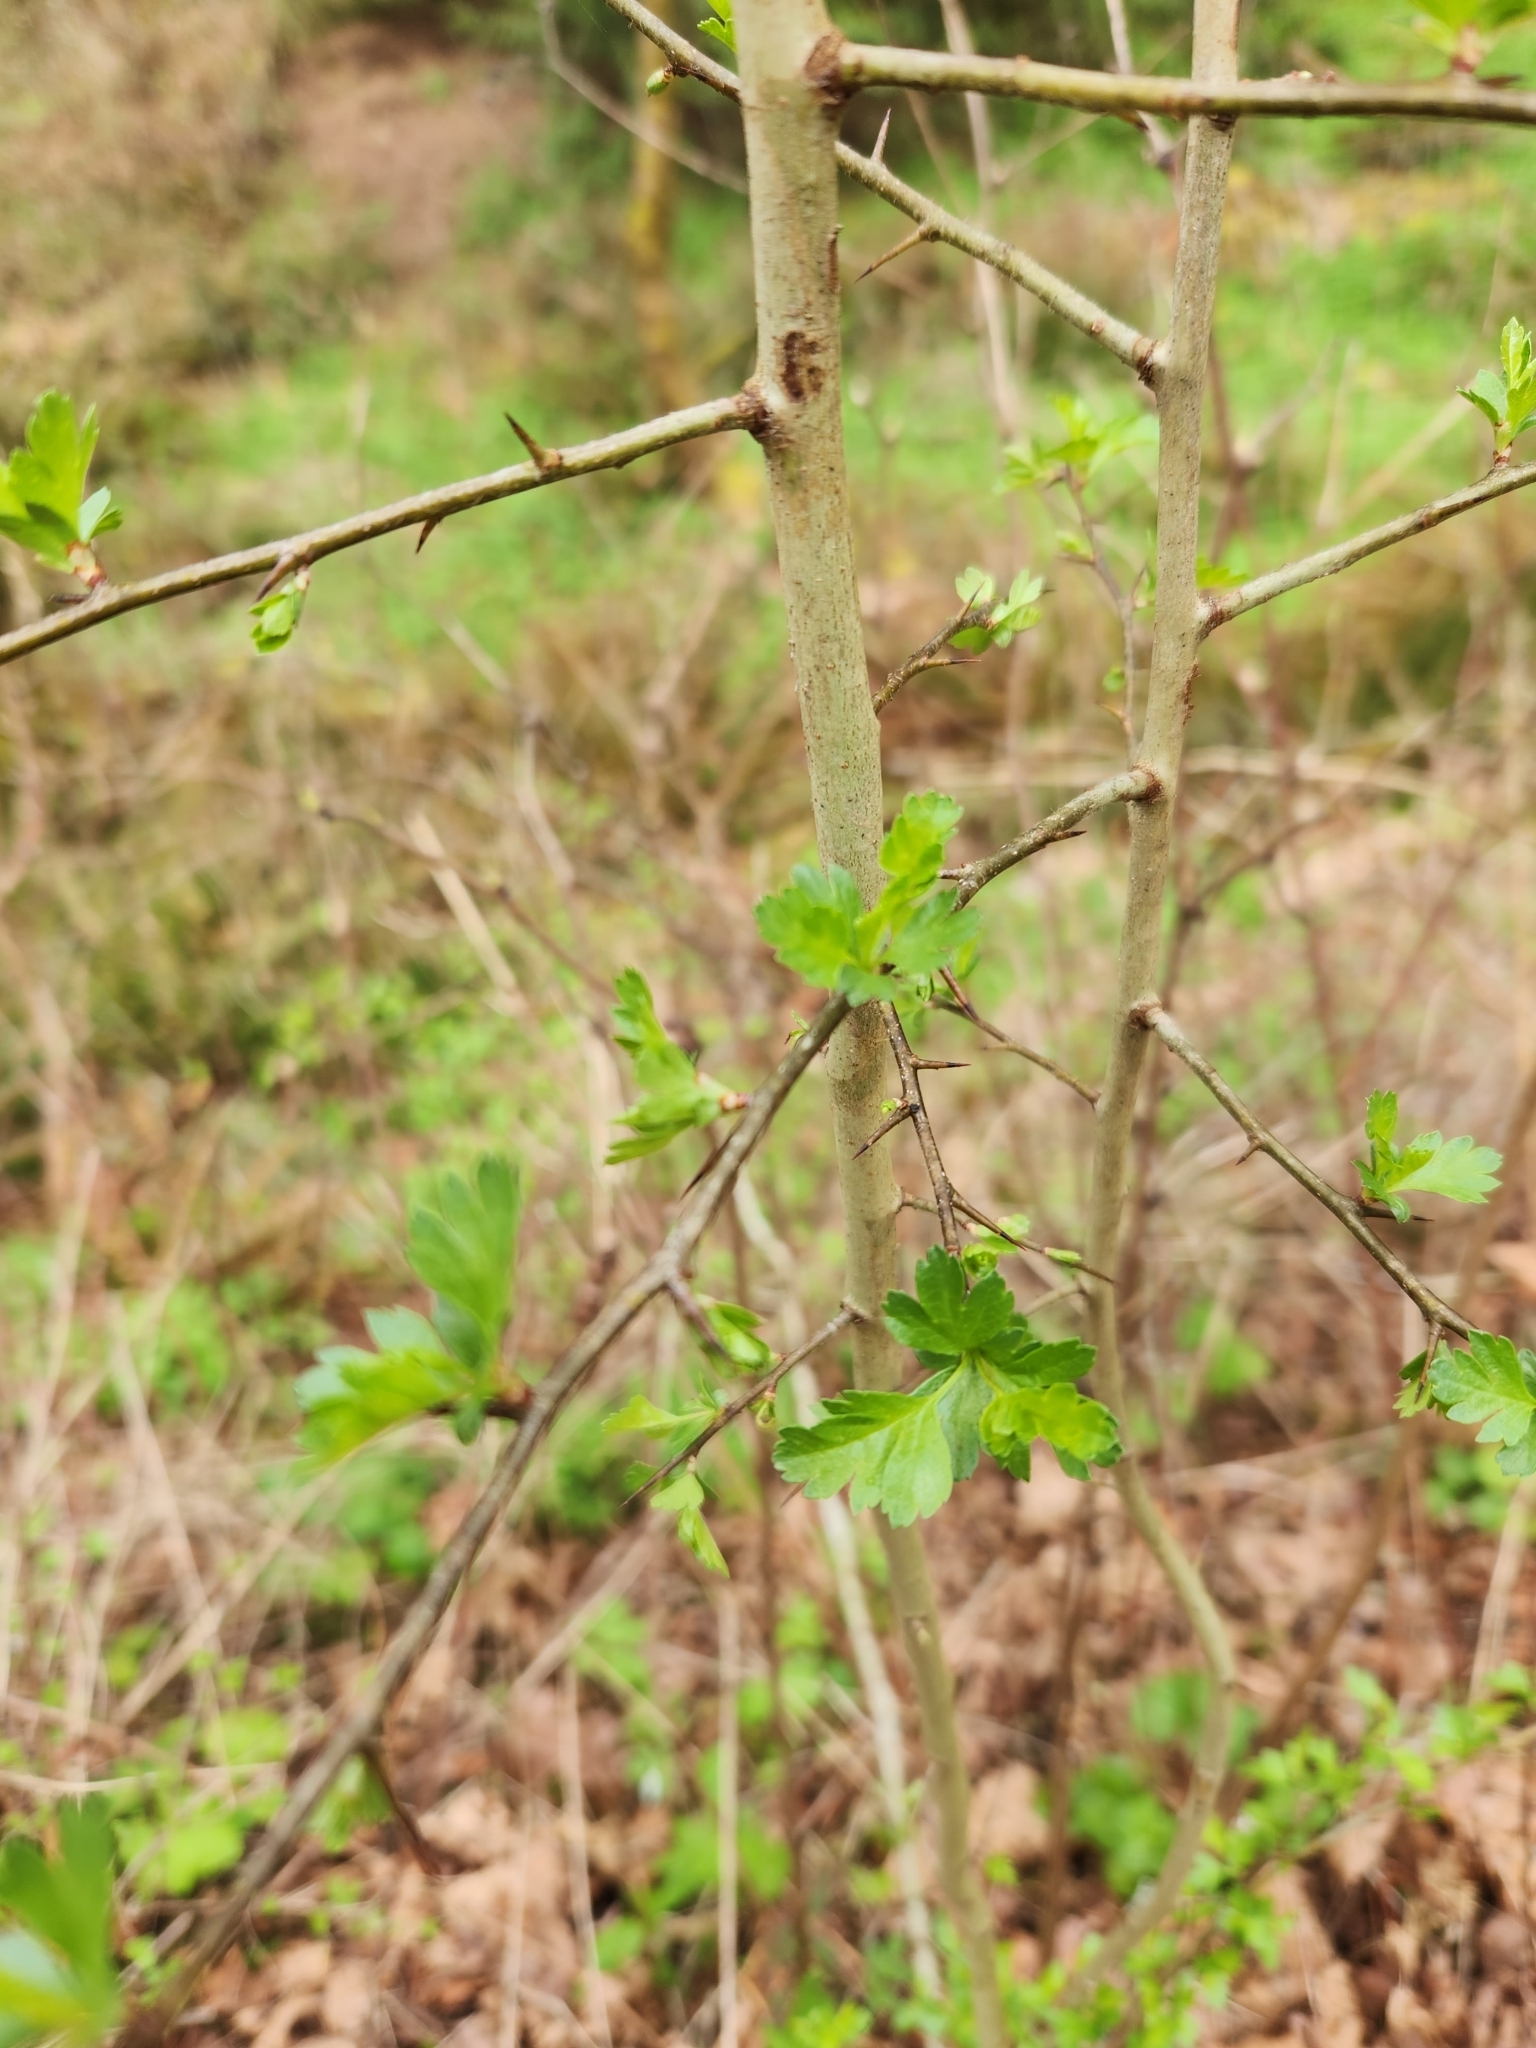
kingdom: Plantae
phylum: Tracheophyta
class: Magnoliopsida
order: Rosales
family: Rosaceae
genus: Crataegus
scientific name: Crataegus monogyna
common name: Hawthorn
